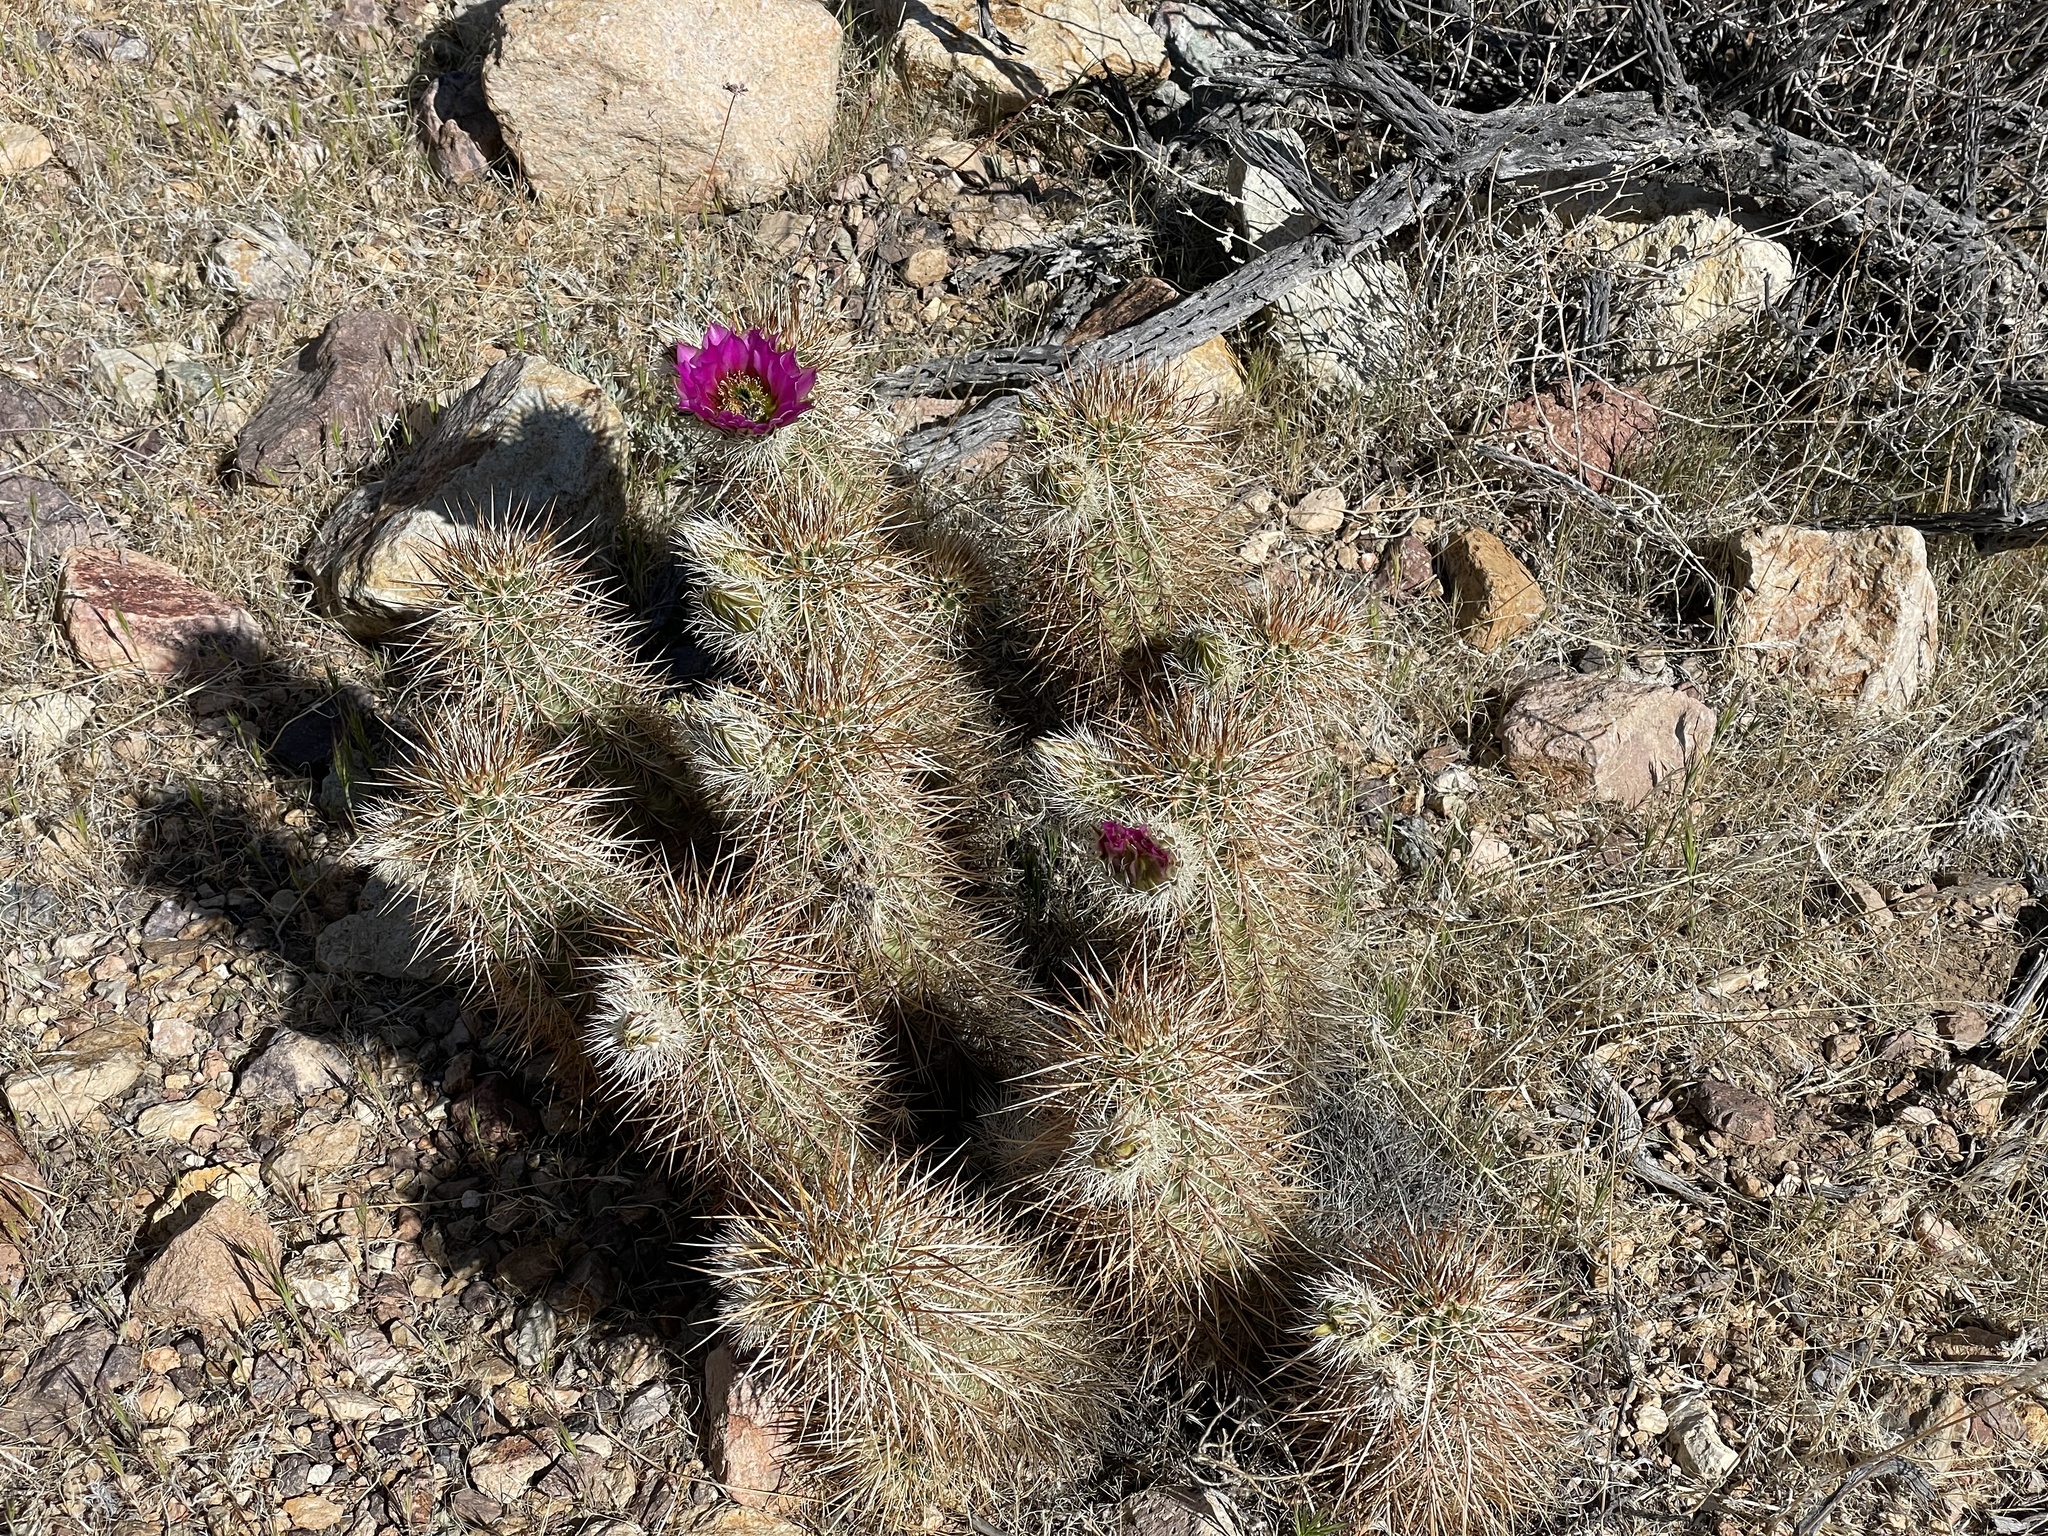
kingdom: Plantae
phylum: Tracheophyta
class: Magnoliopsida
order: Caryophyllales
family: Cactaceae
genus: Echinocereus
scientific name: Echinocereus engelmannii
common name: Engelmann's hedgehog cactus
